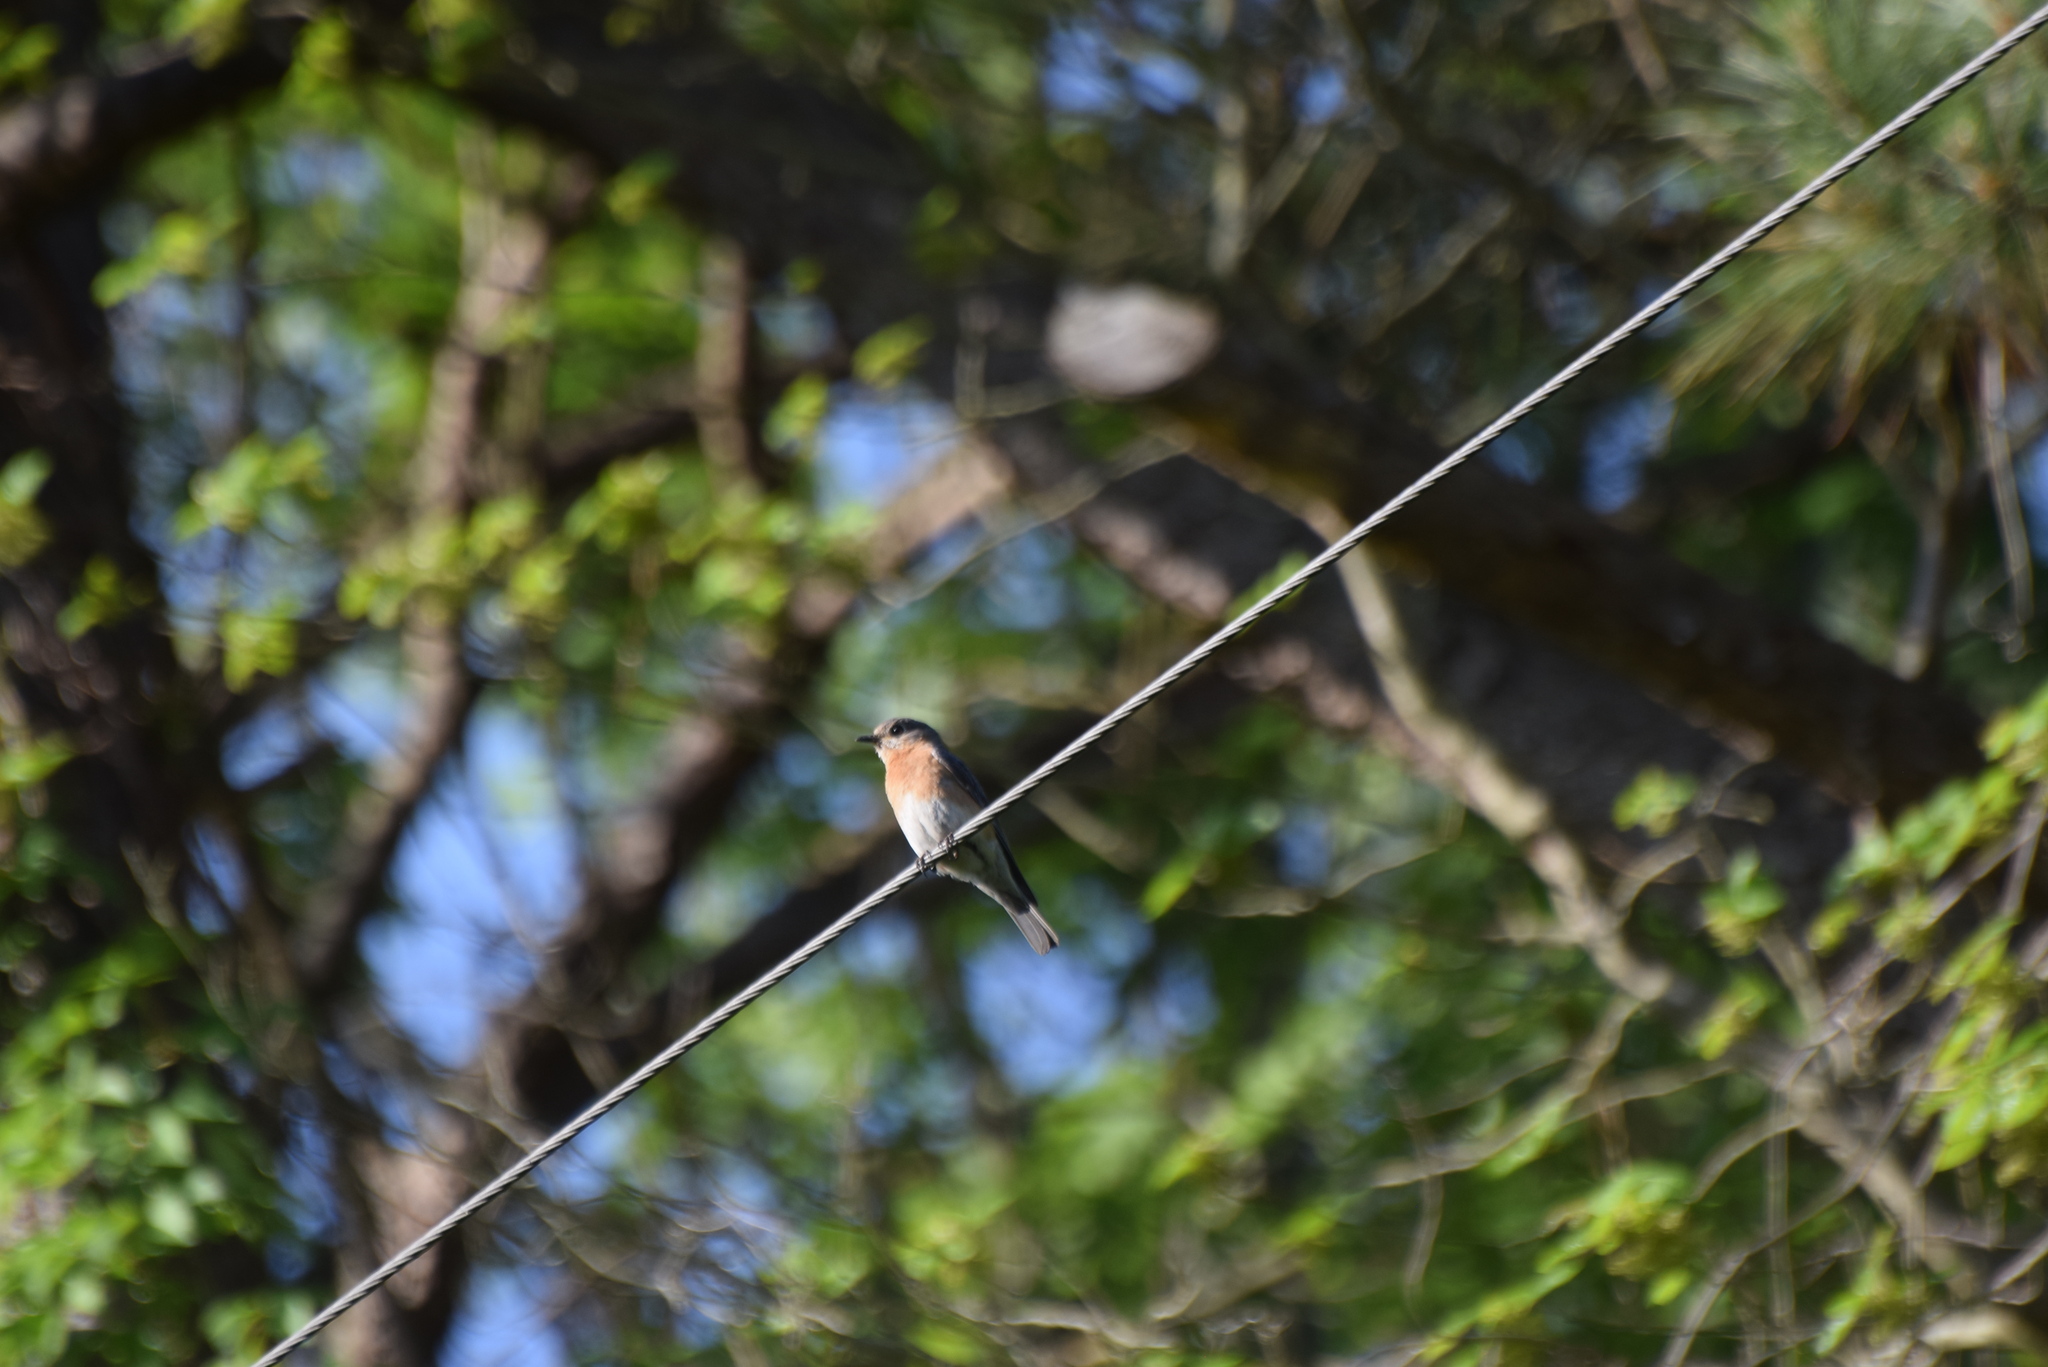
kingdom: Animalia
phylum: Chordata
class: Aves
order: Passeriformes
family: Turdidae
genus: Sialia
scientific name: Sialia sialis
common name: Eastern bluebird
